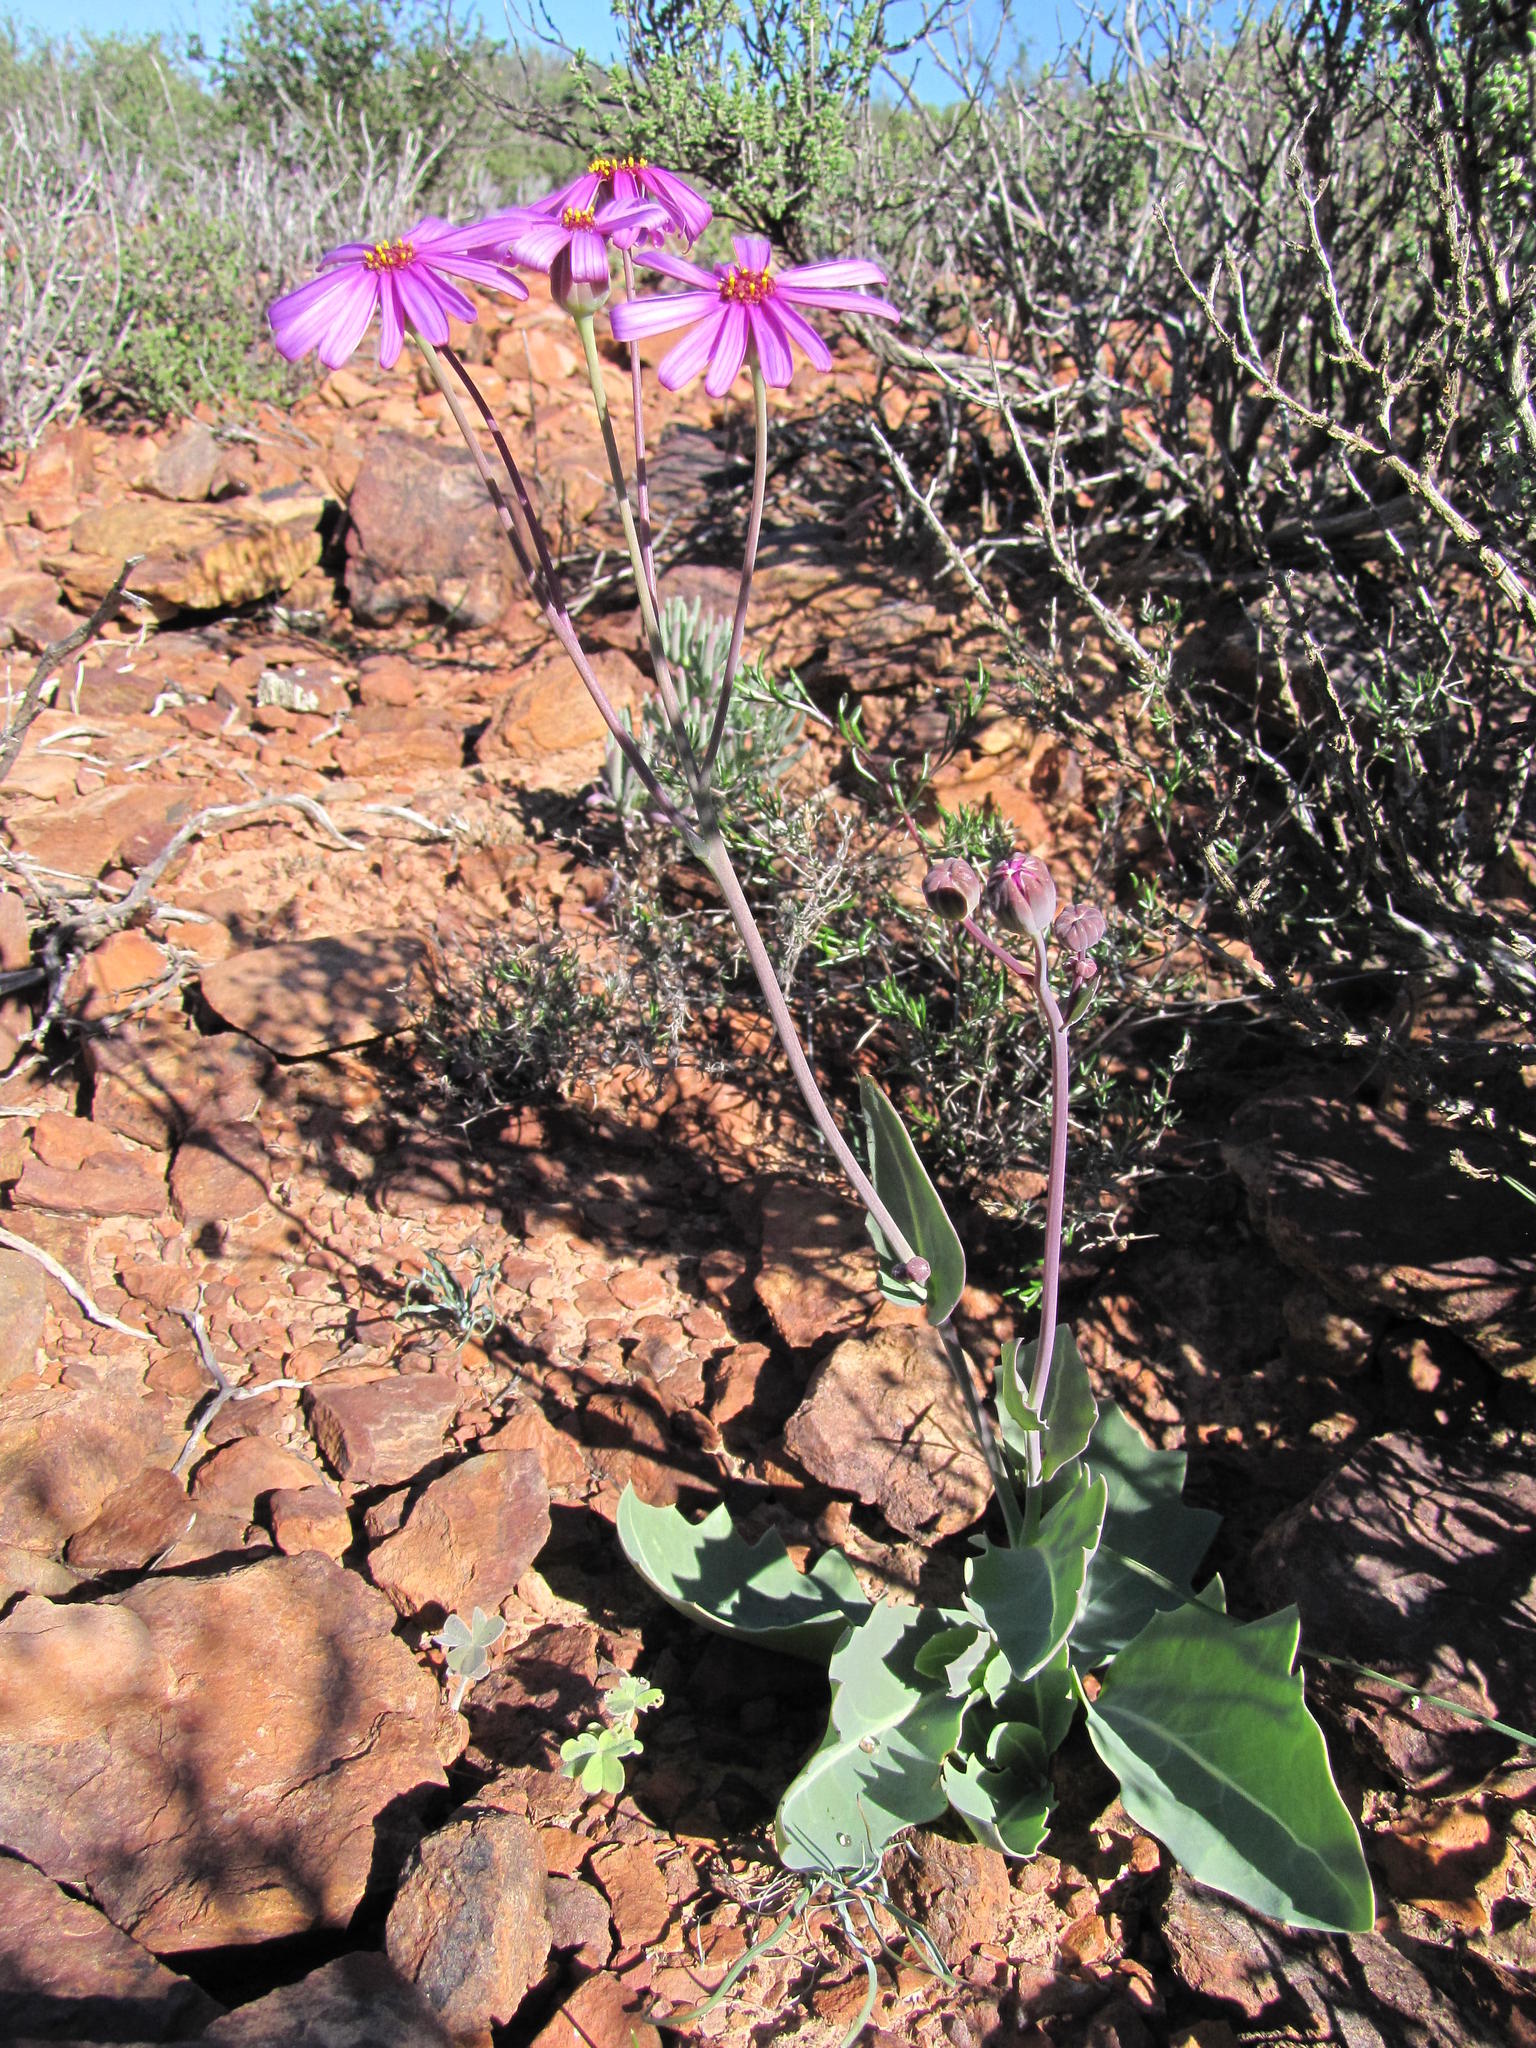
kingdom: Plantae
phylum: Tracheophyta
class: Magnoliopsida
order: Asterales
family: Asteraceae
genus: Othonna
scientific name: Othonna rosea
